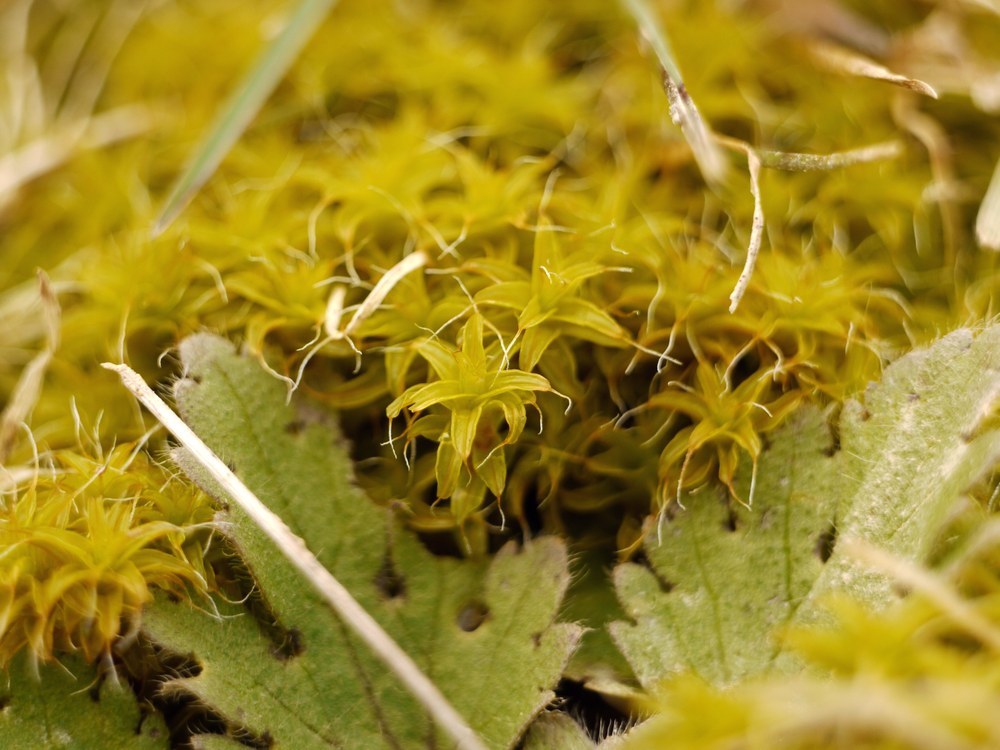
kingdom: Plantae
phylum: Bryophyta
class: Bryopsida
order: Pottiales
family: Pottiaceae
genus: Syntrichia
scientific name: Syntrichia ruralis
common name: Sidewalk screw moss
